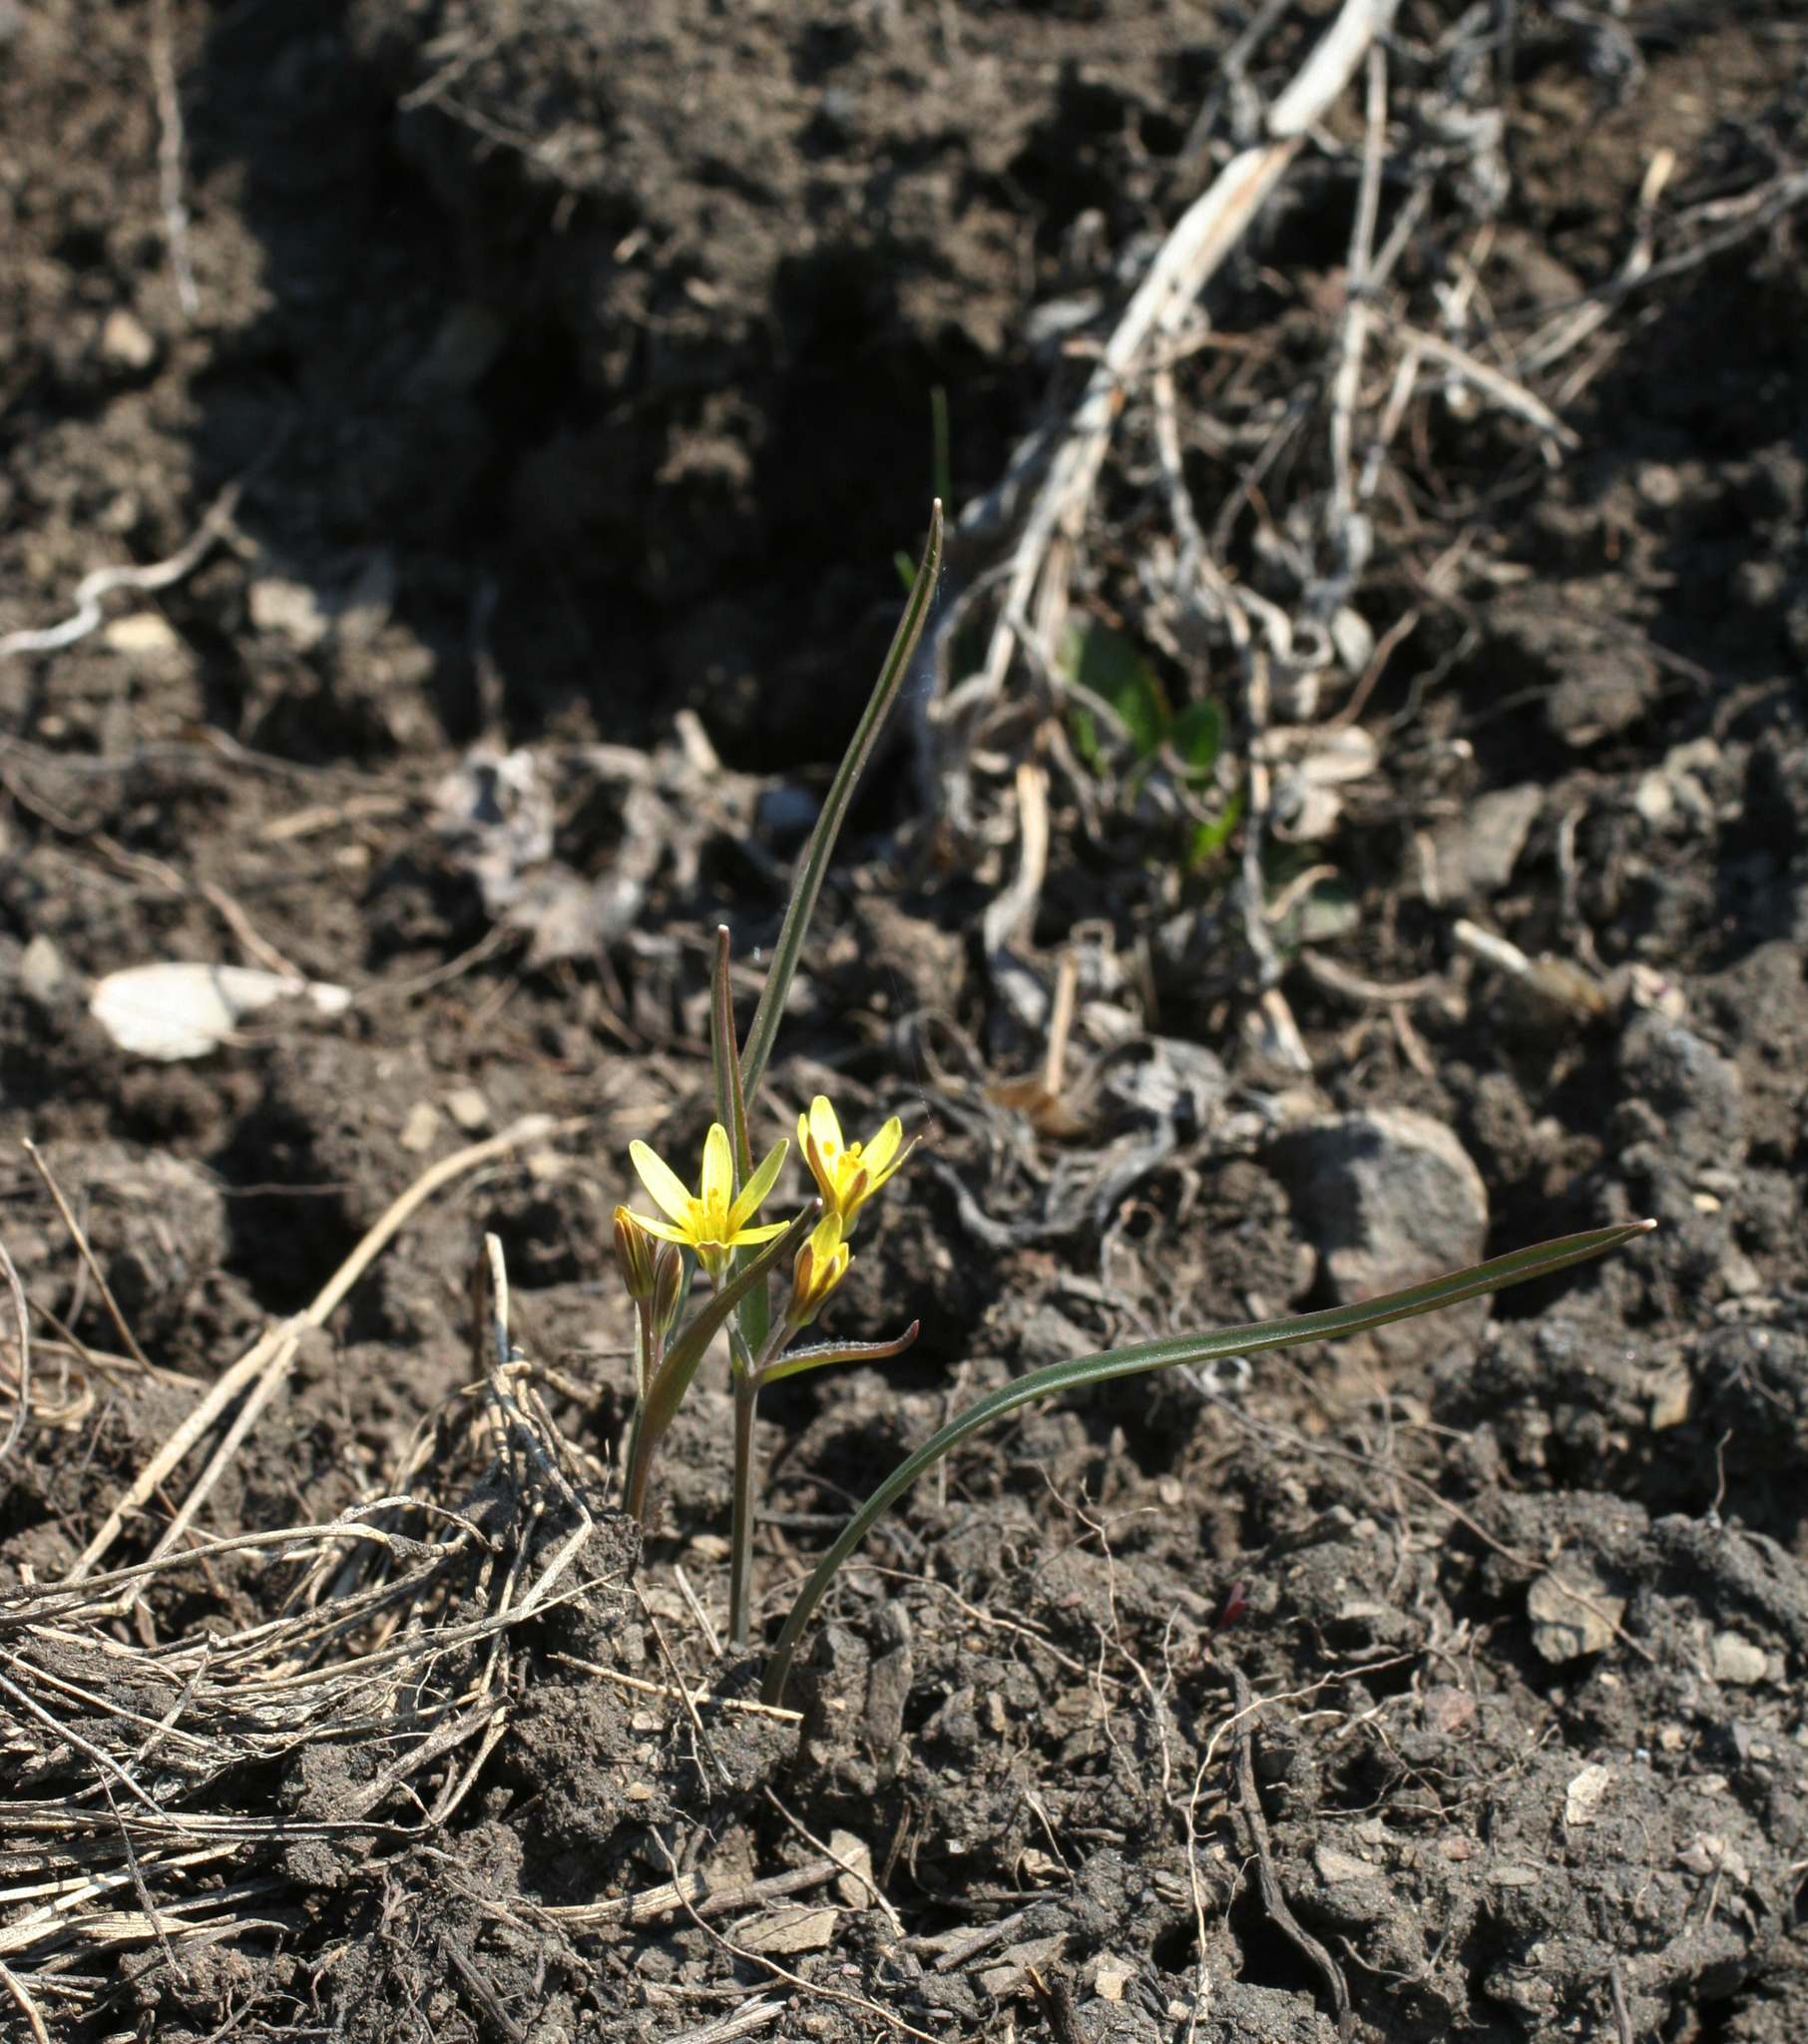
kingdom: Plantae
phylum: Tracheophyta
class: Liliopsida
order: Liliales
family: Liliaceae
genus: Gagea
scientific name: Gagea fedtschenkoana
